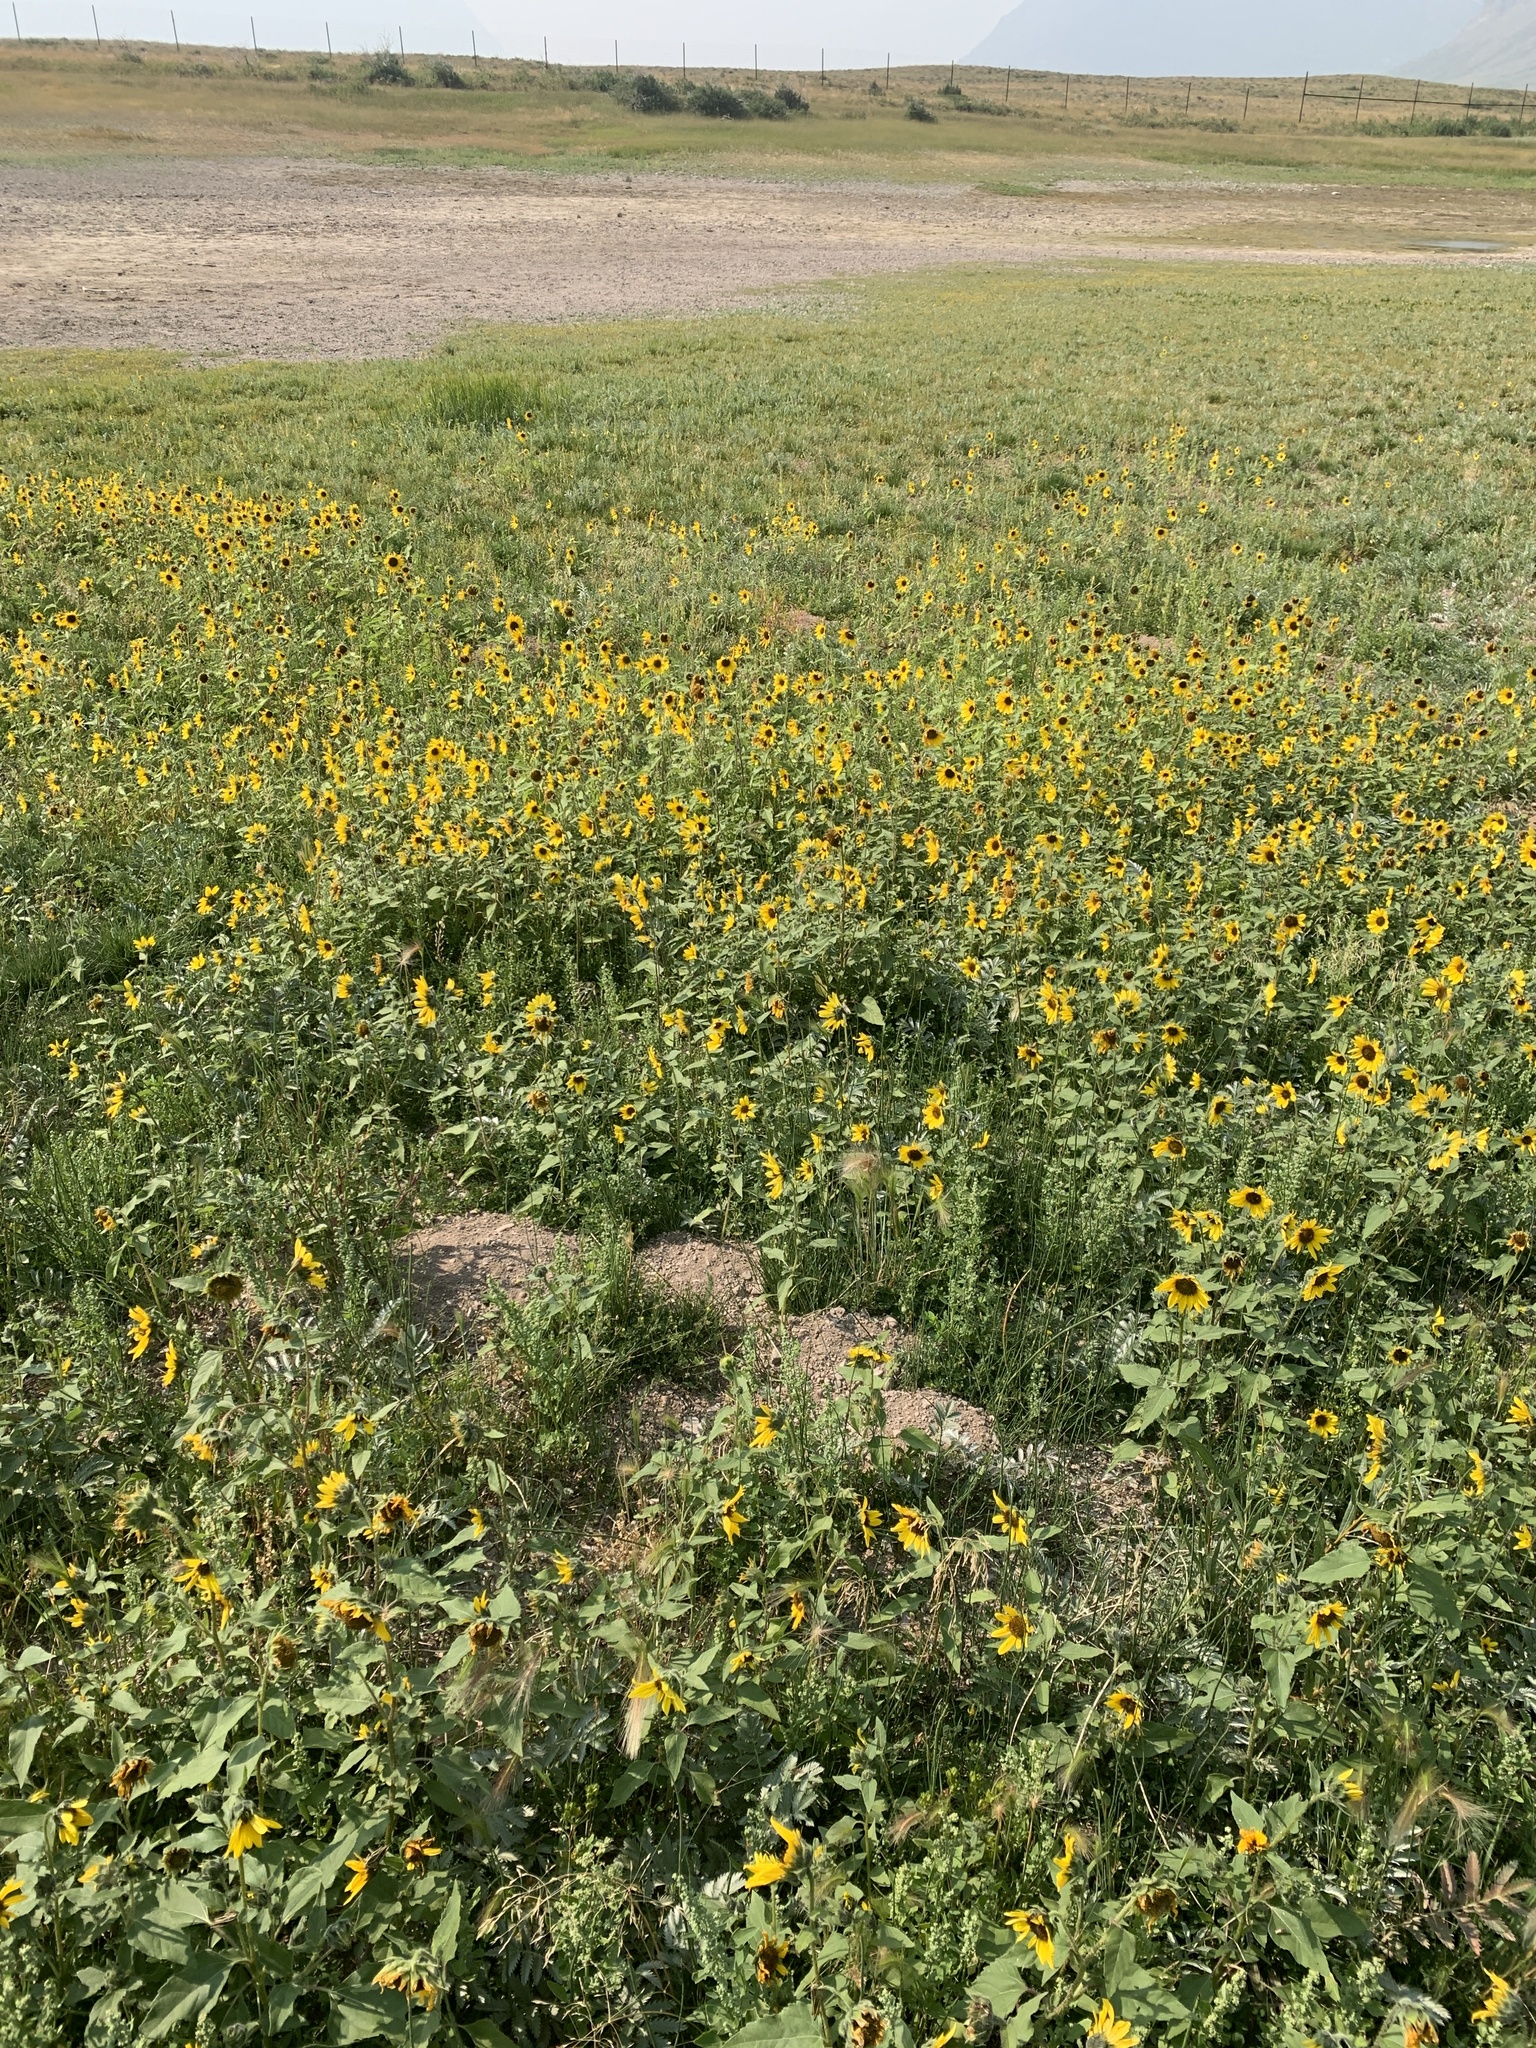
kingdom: Plantae
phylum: Tracheophyta
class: Magnoliopsida
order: Asterales
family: Asteraceae
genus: Helianthus
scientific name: Helianthus annuus
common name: Sunflower
